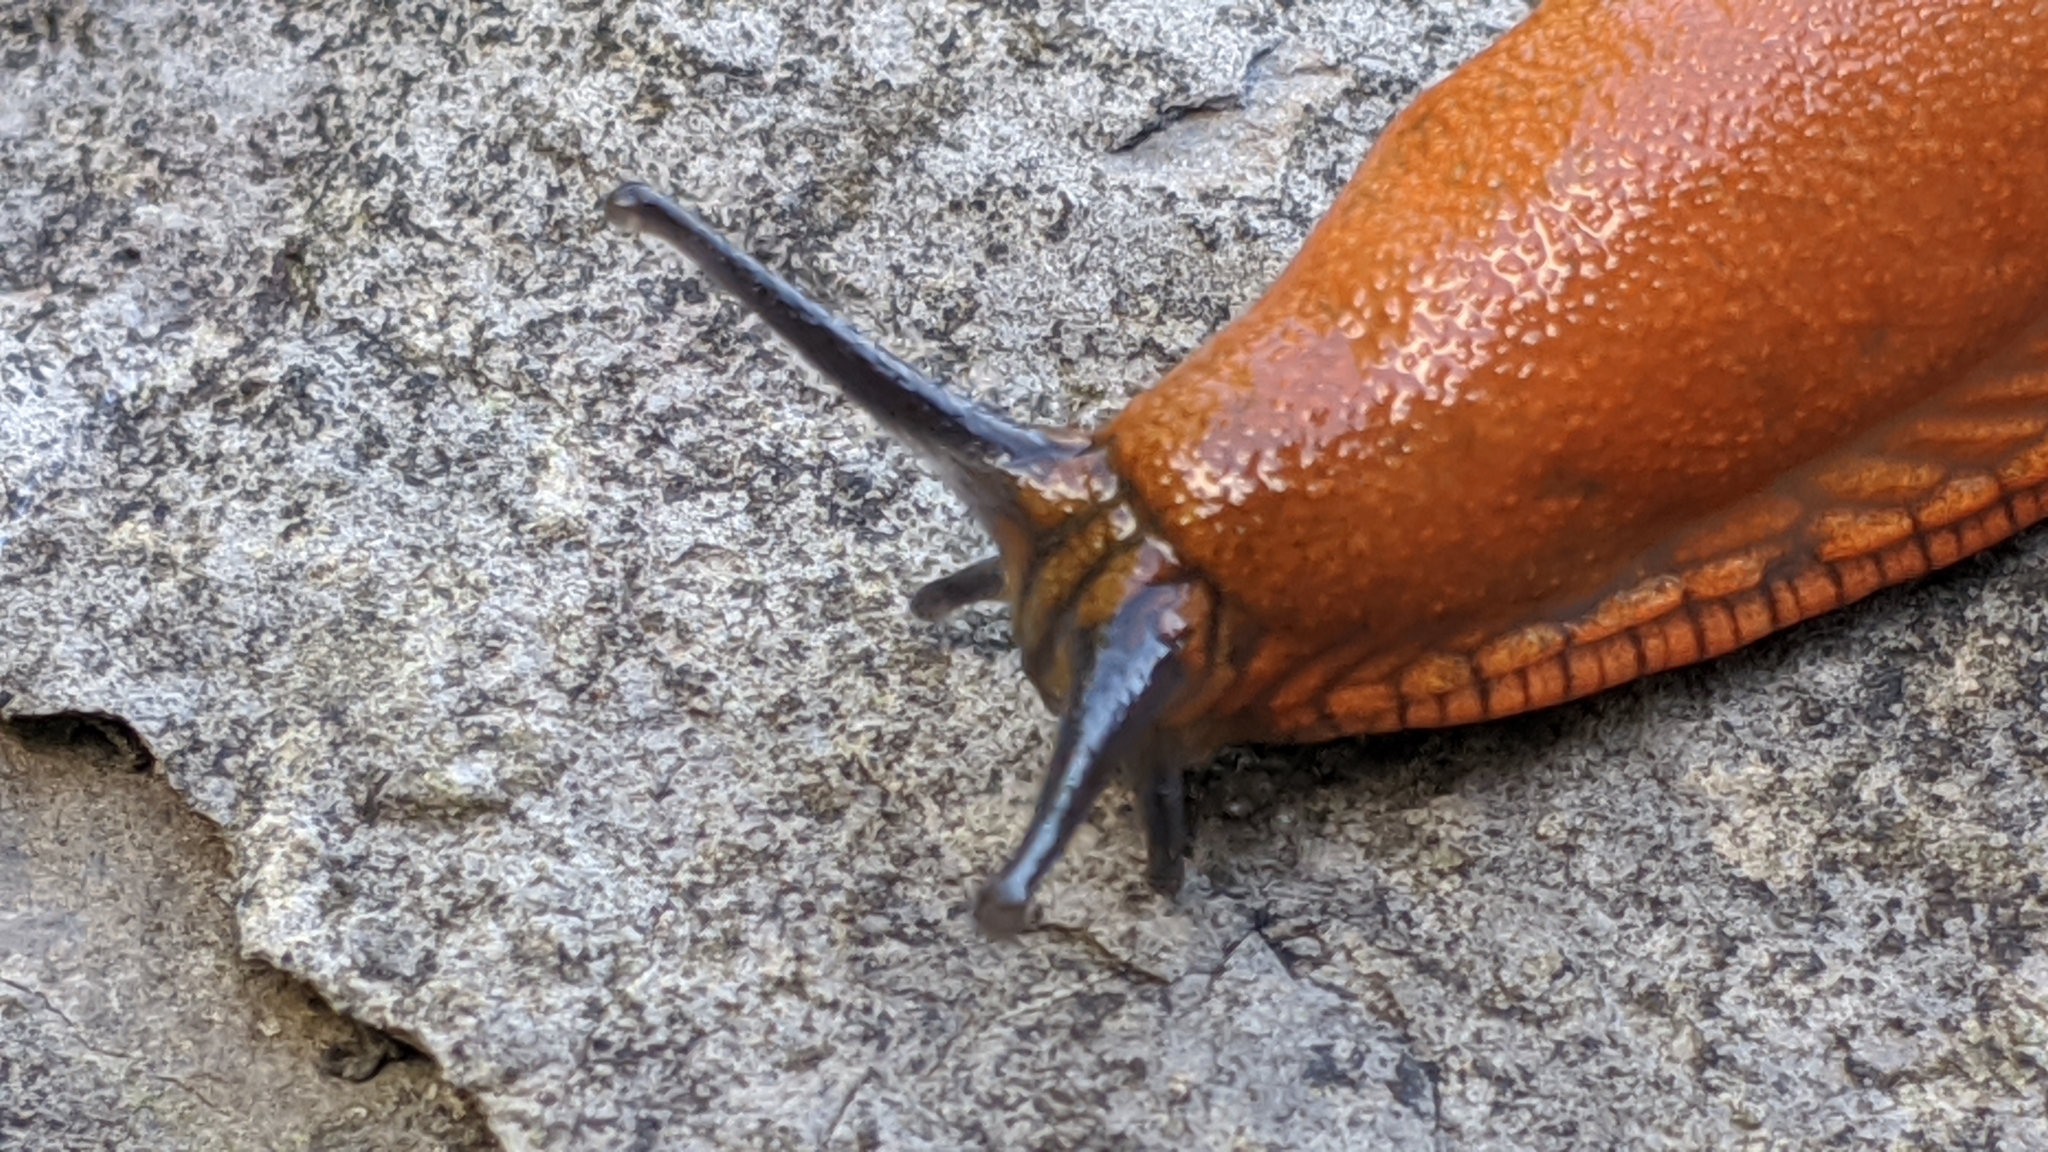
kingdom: Animalia
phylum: Mollusca
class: Gastropoda
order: Stylommatophora
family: Arionidae
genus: Arion
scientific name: Arion vulgaris
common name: Lusitanian slug
